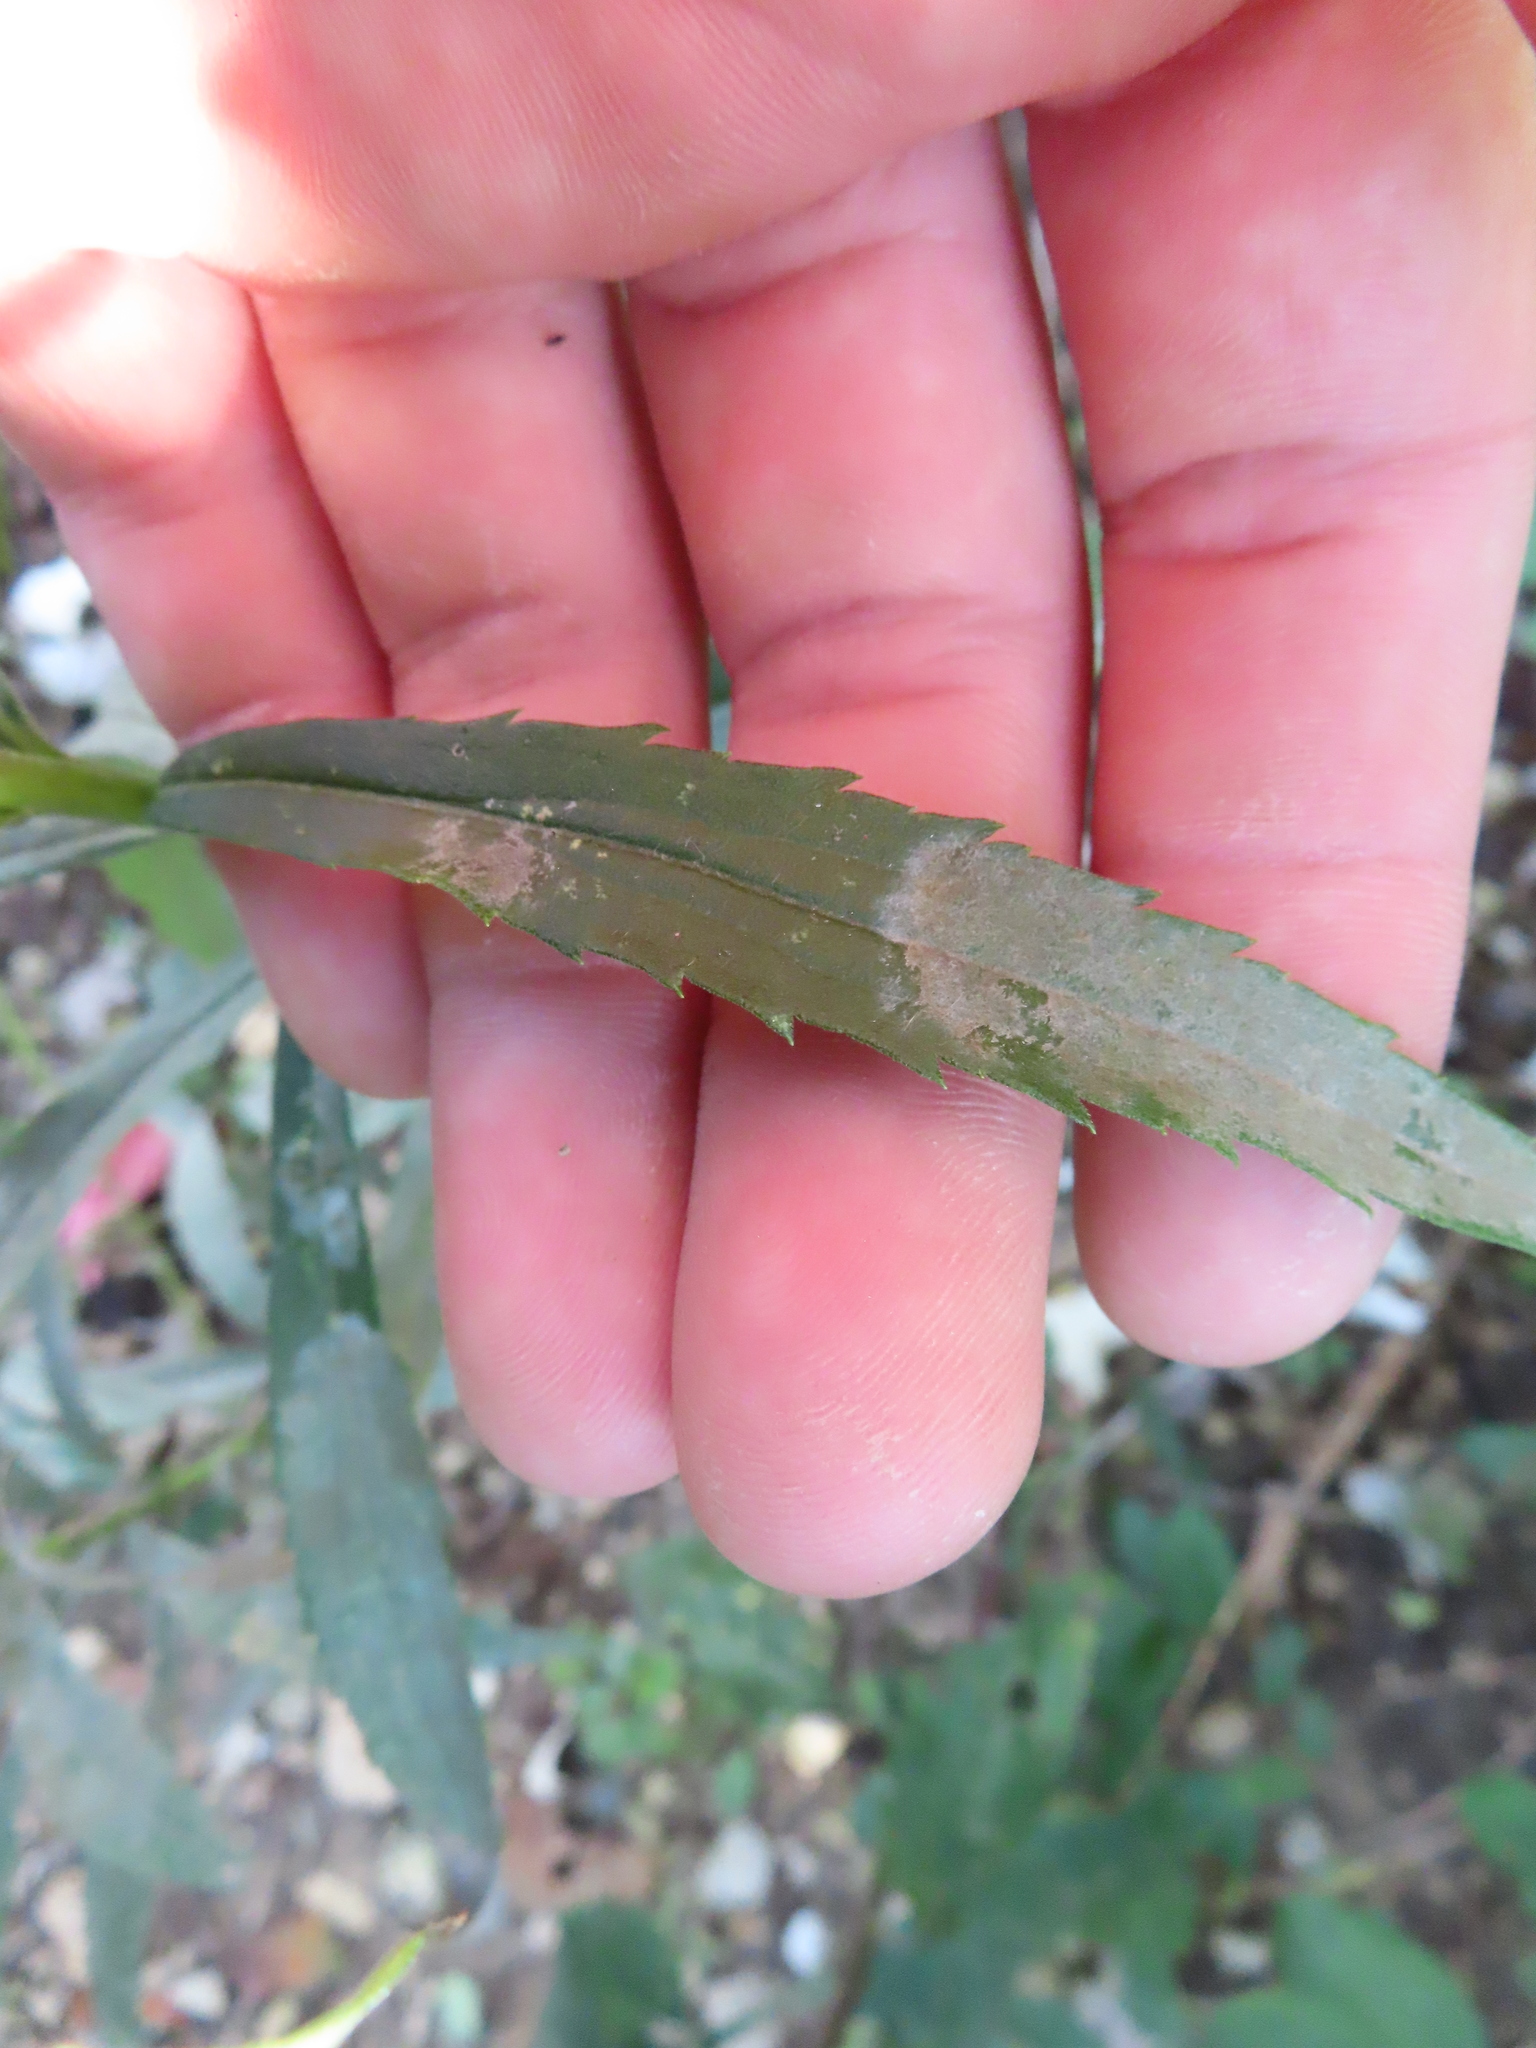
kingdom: Fungi
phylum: Ascomycota
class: Leotiomycetes
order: Helotiales
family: Erysiphaceae
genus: Golovinomyces
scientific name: Golovinomyces asterum
